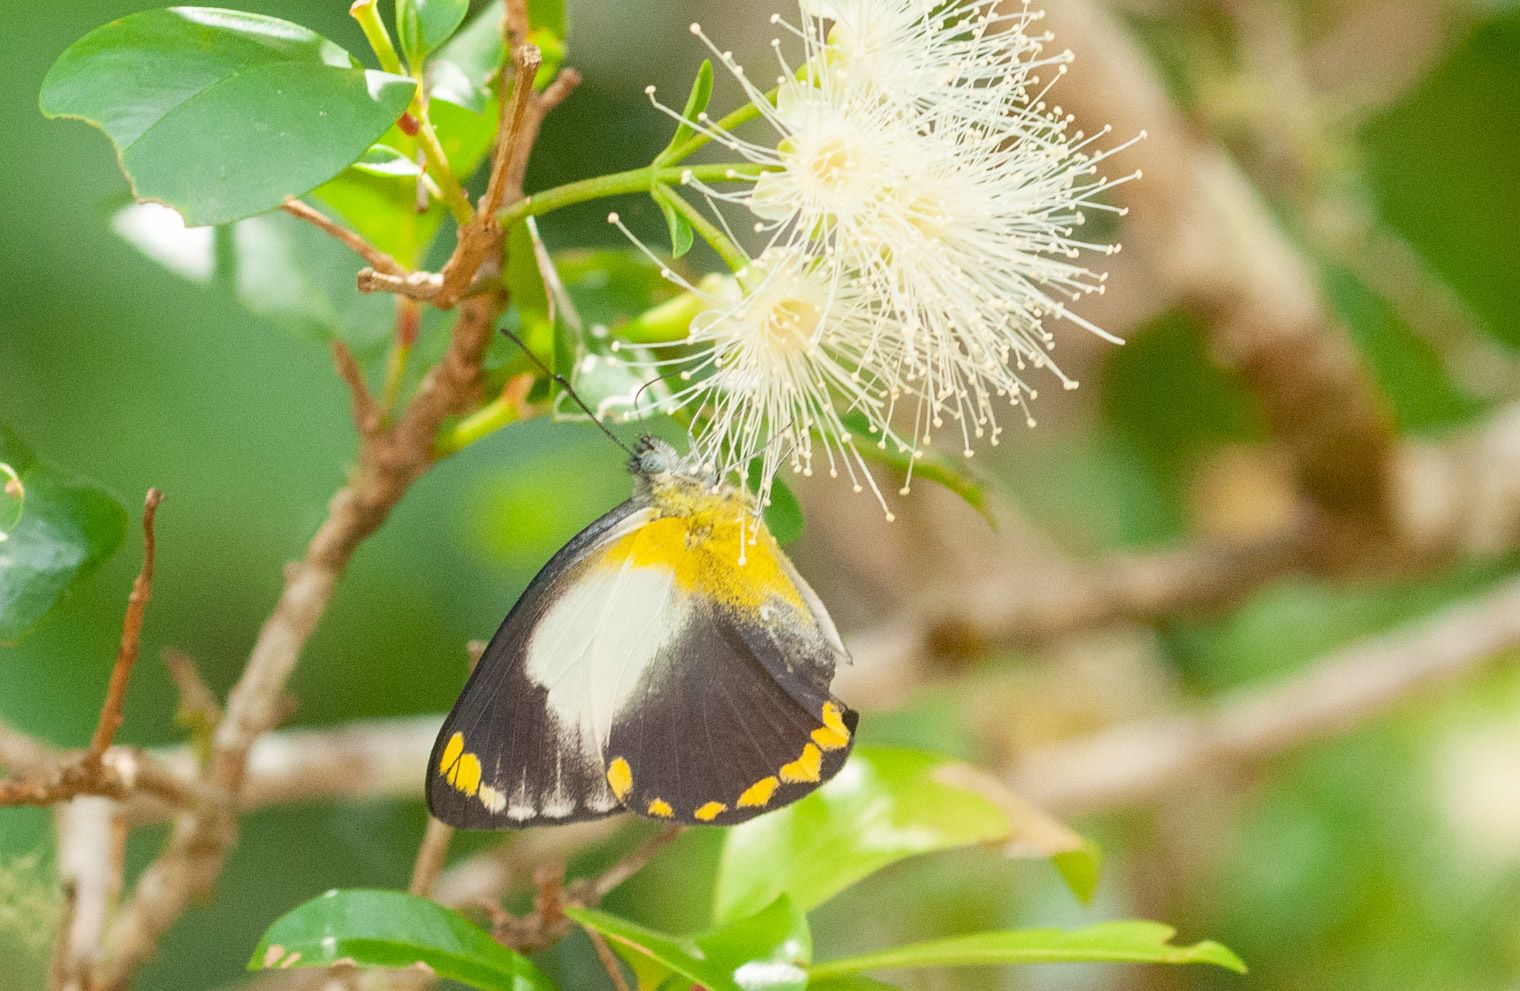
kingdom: Animalia
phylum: Arthropoda
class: Insecta
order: Lepidoptera
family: Pieridae
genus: Delias
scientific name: Delias ennia
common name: Yellow-banded jezebel
